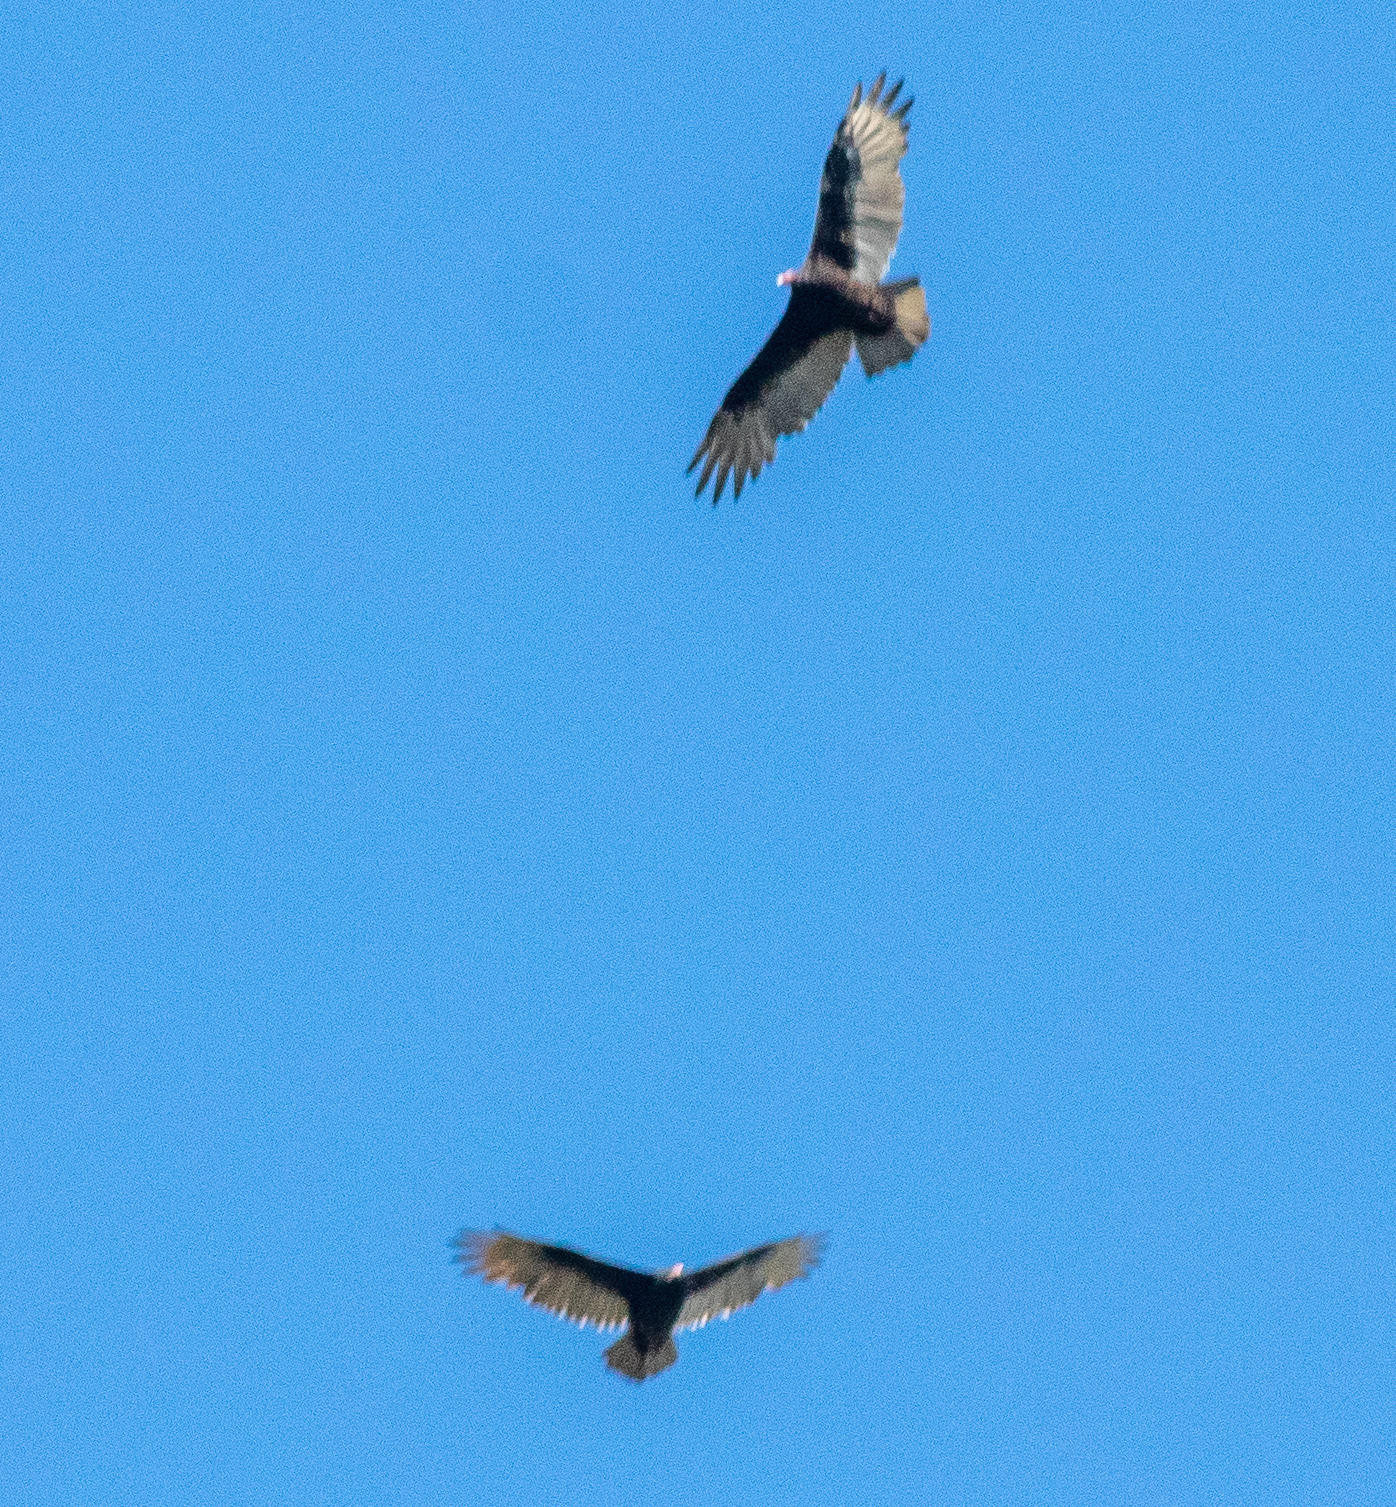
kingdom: Animalia
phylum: Chordata
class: Aves
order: Accipitriformes
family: Cathartidae
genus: Cathartes
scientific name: Cathartes aura
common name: Turkey vulture
